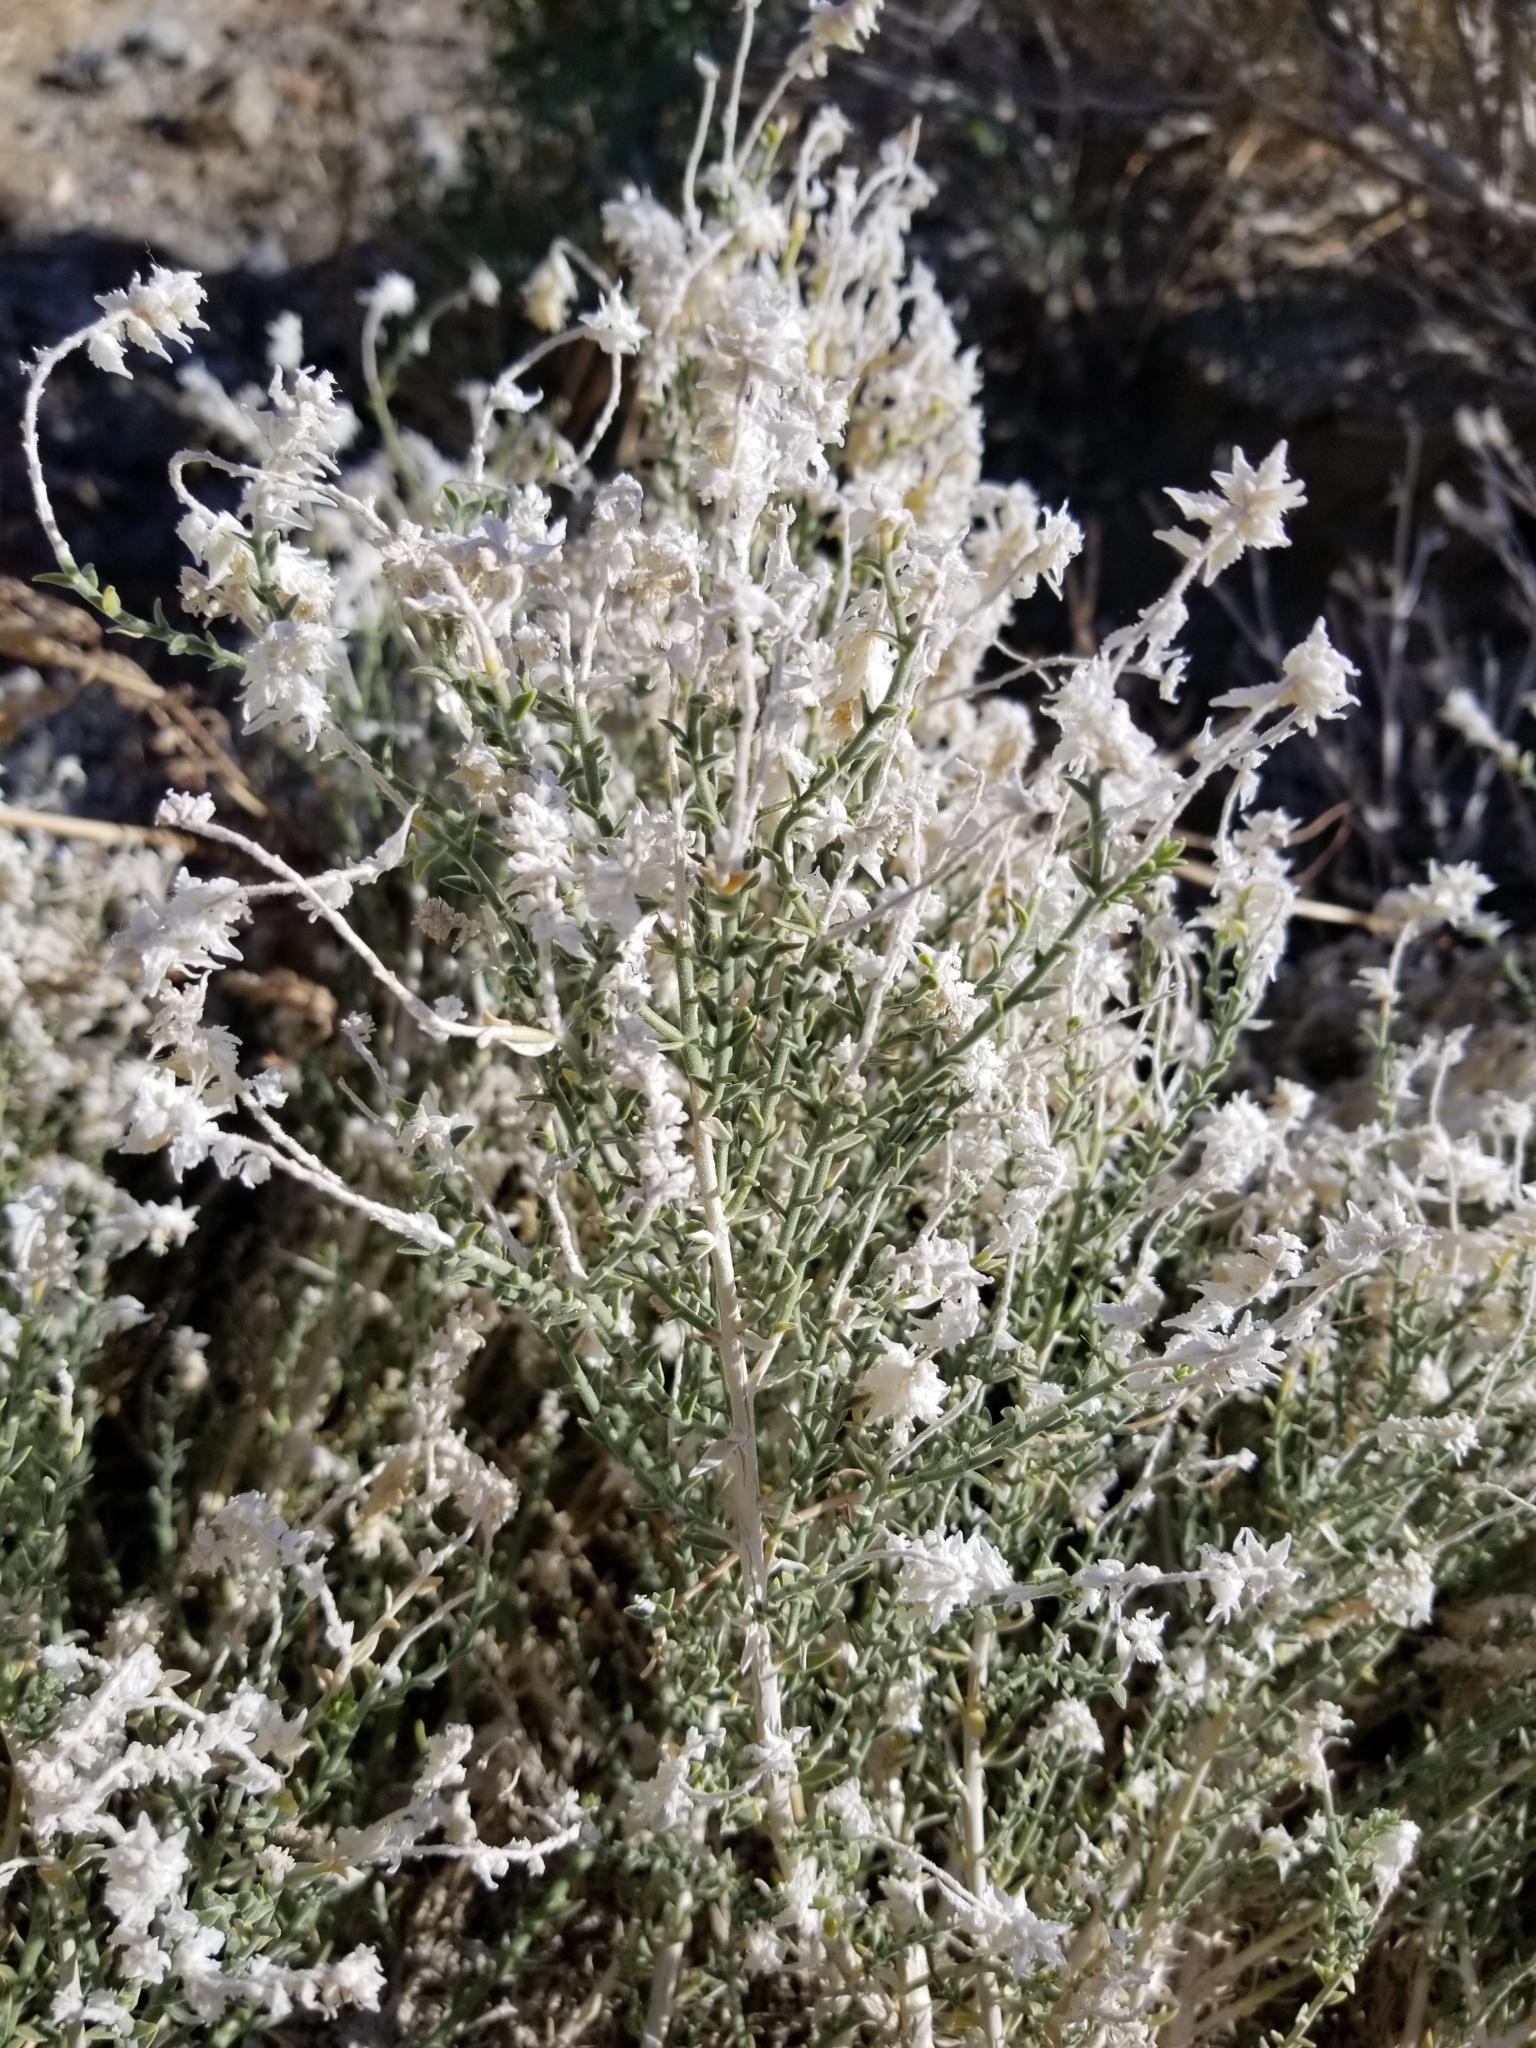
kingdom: Plantae
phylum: Tracheophyta
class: Magnoliopsida
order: Cornales
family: Loasaceae
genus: Petalonyx
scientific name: Petalonyx thurberi
